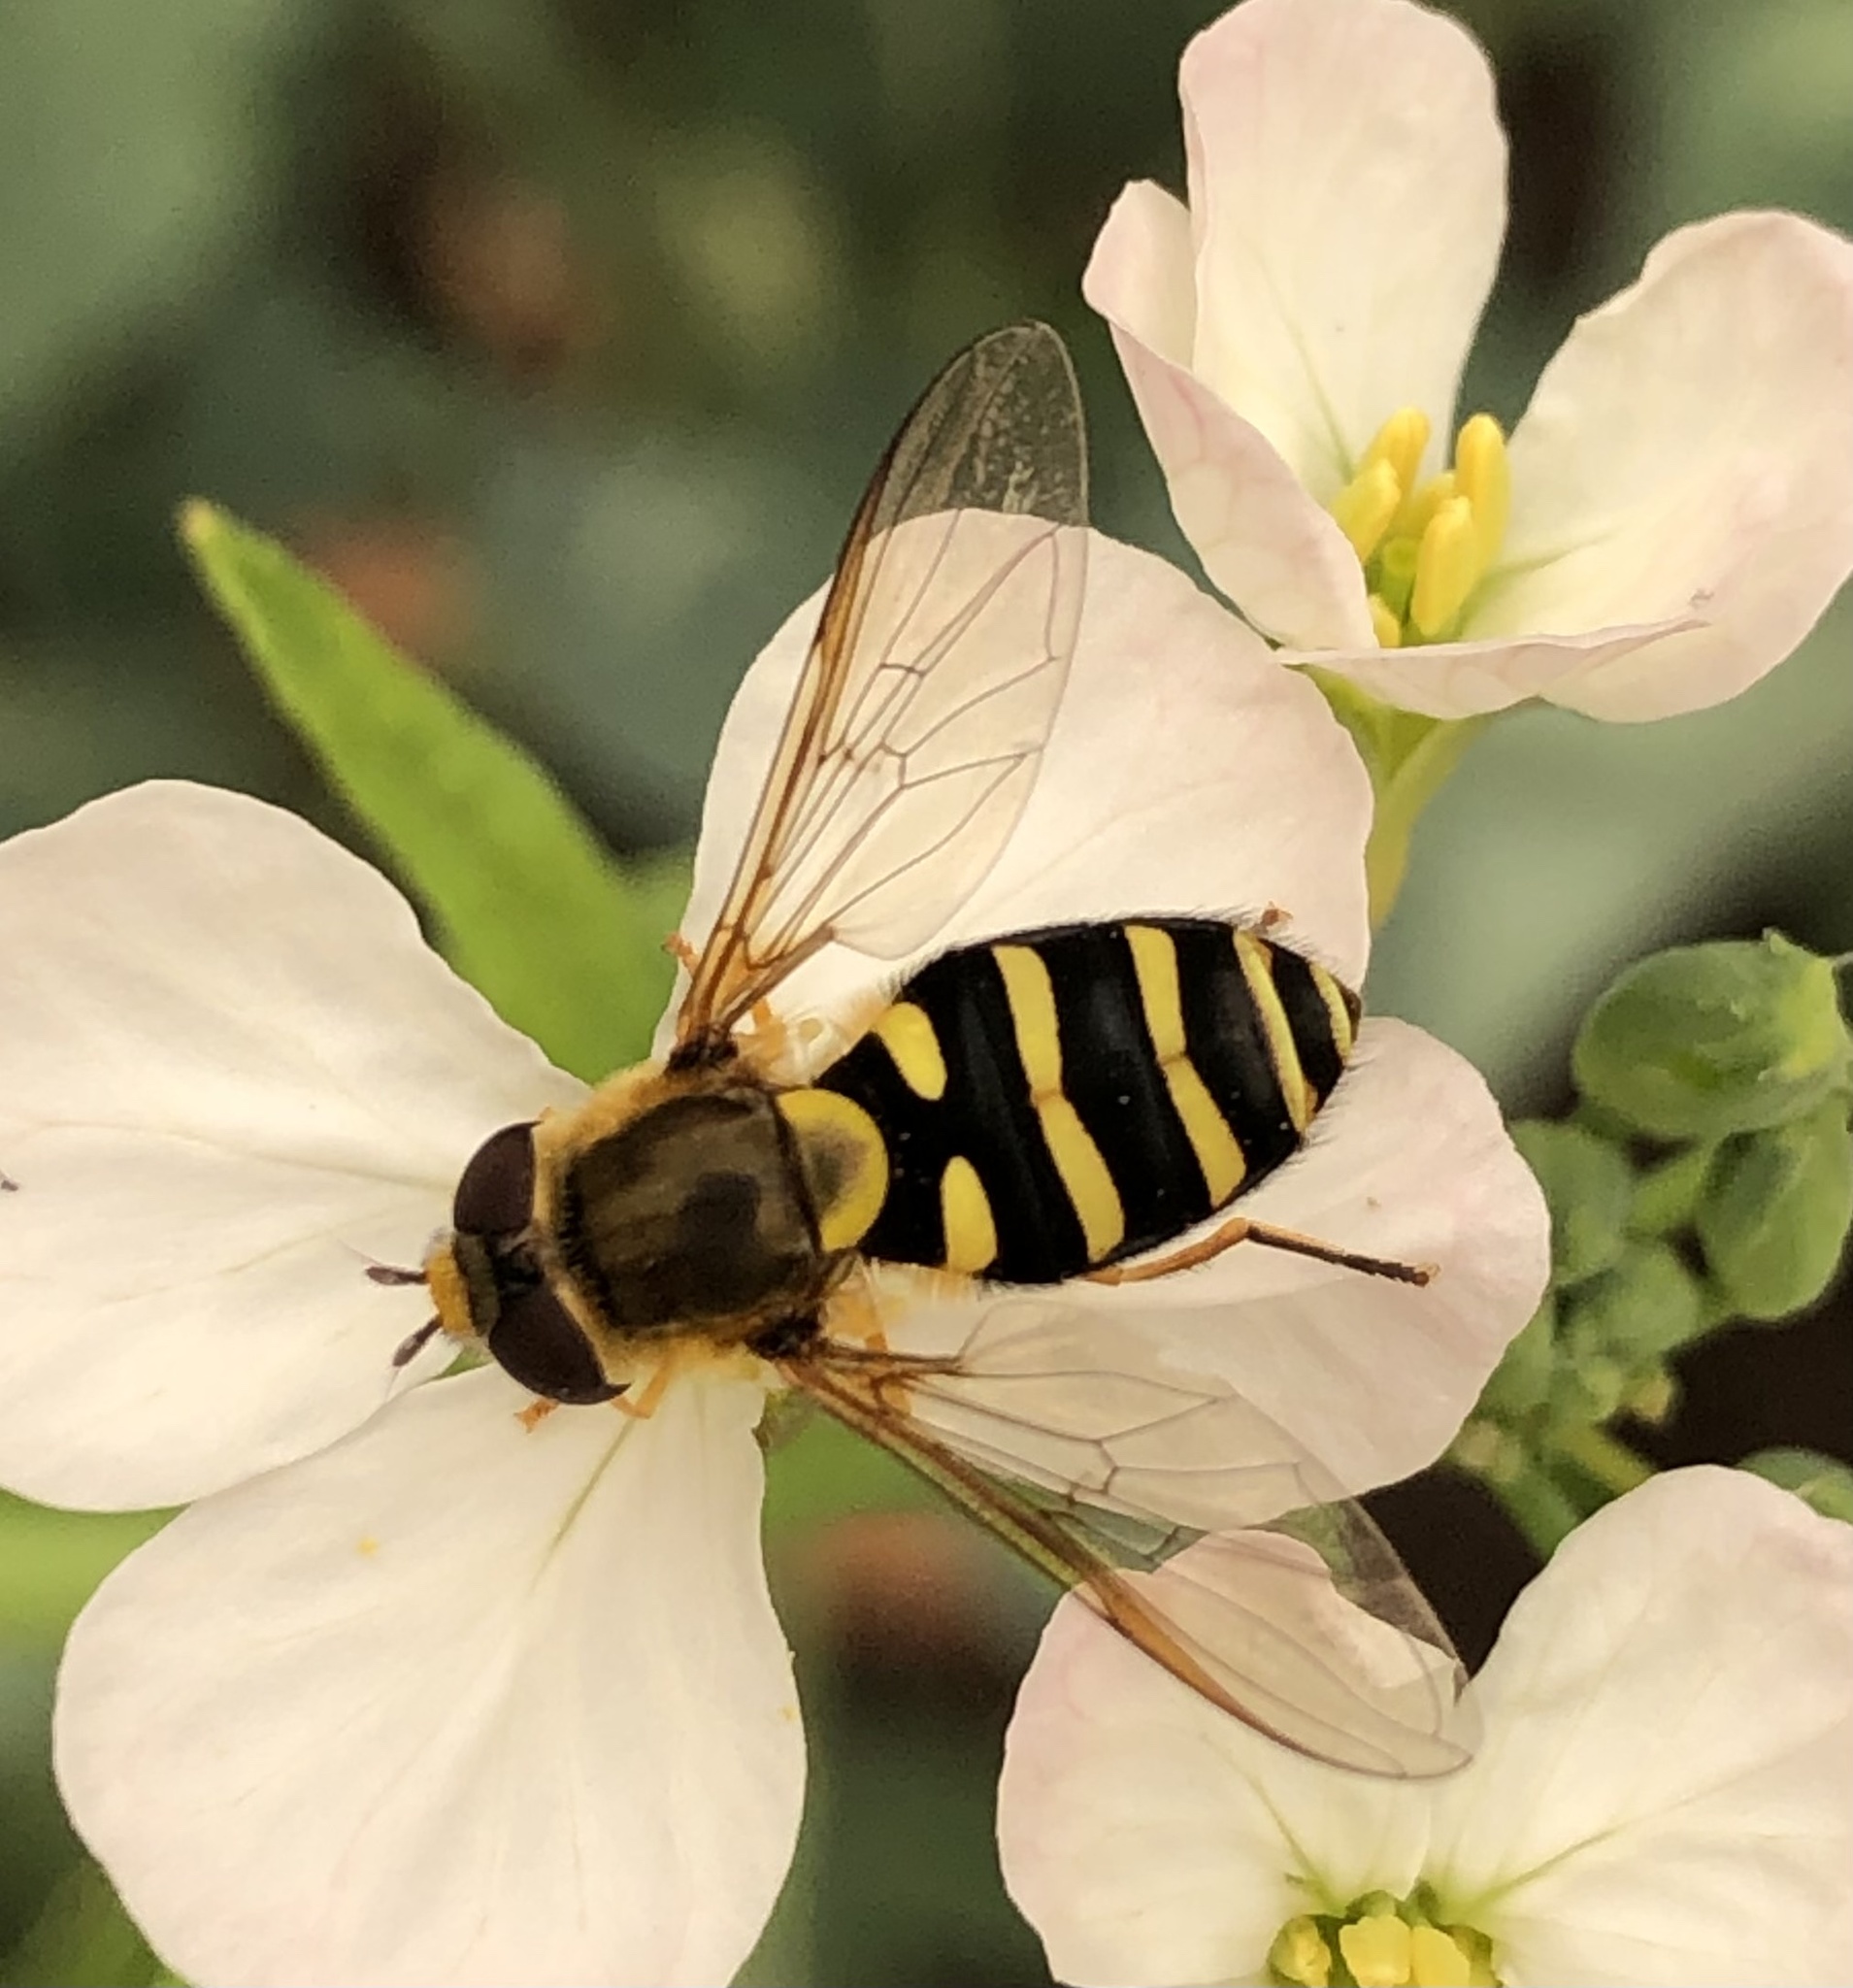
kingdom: Animalia
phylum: Arthropoda
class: Insecta
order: Diptera
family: Syrphidae
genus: Syrphus
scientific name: Syrphus opinator
